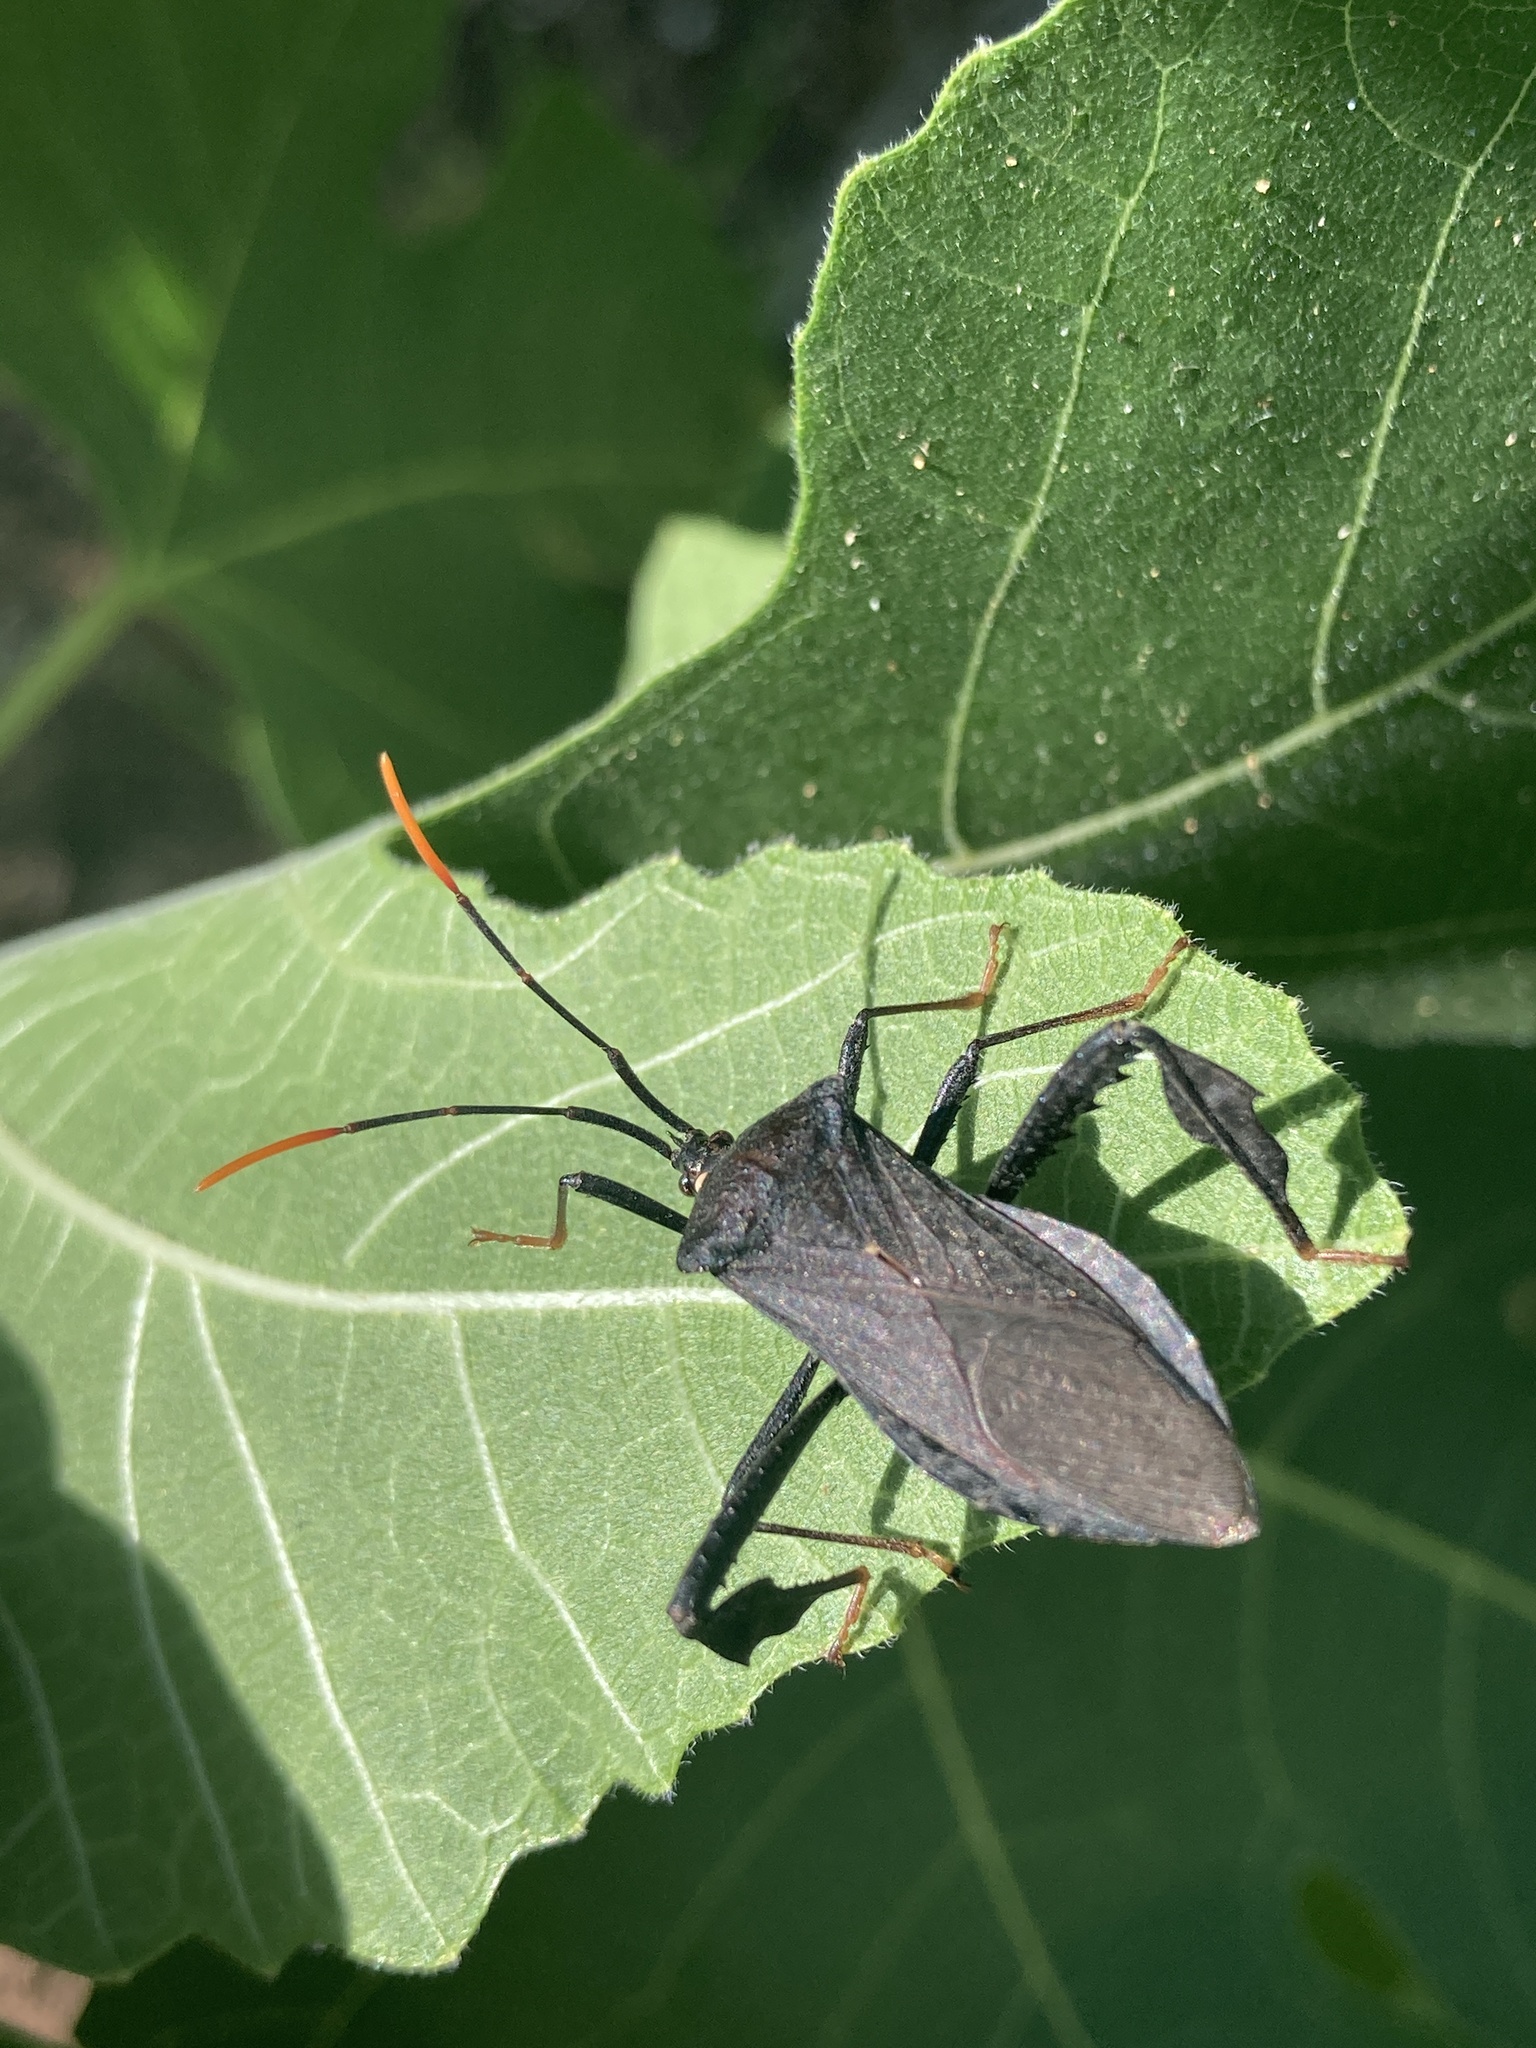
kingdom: Animalia
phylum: Arthropoda
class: Insecta
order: Hemiptera
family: Coreidae
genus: Acanthocephala
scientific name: Acanthocephala terminalis
